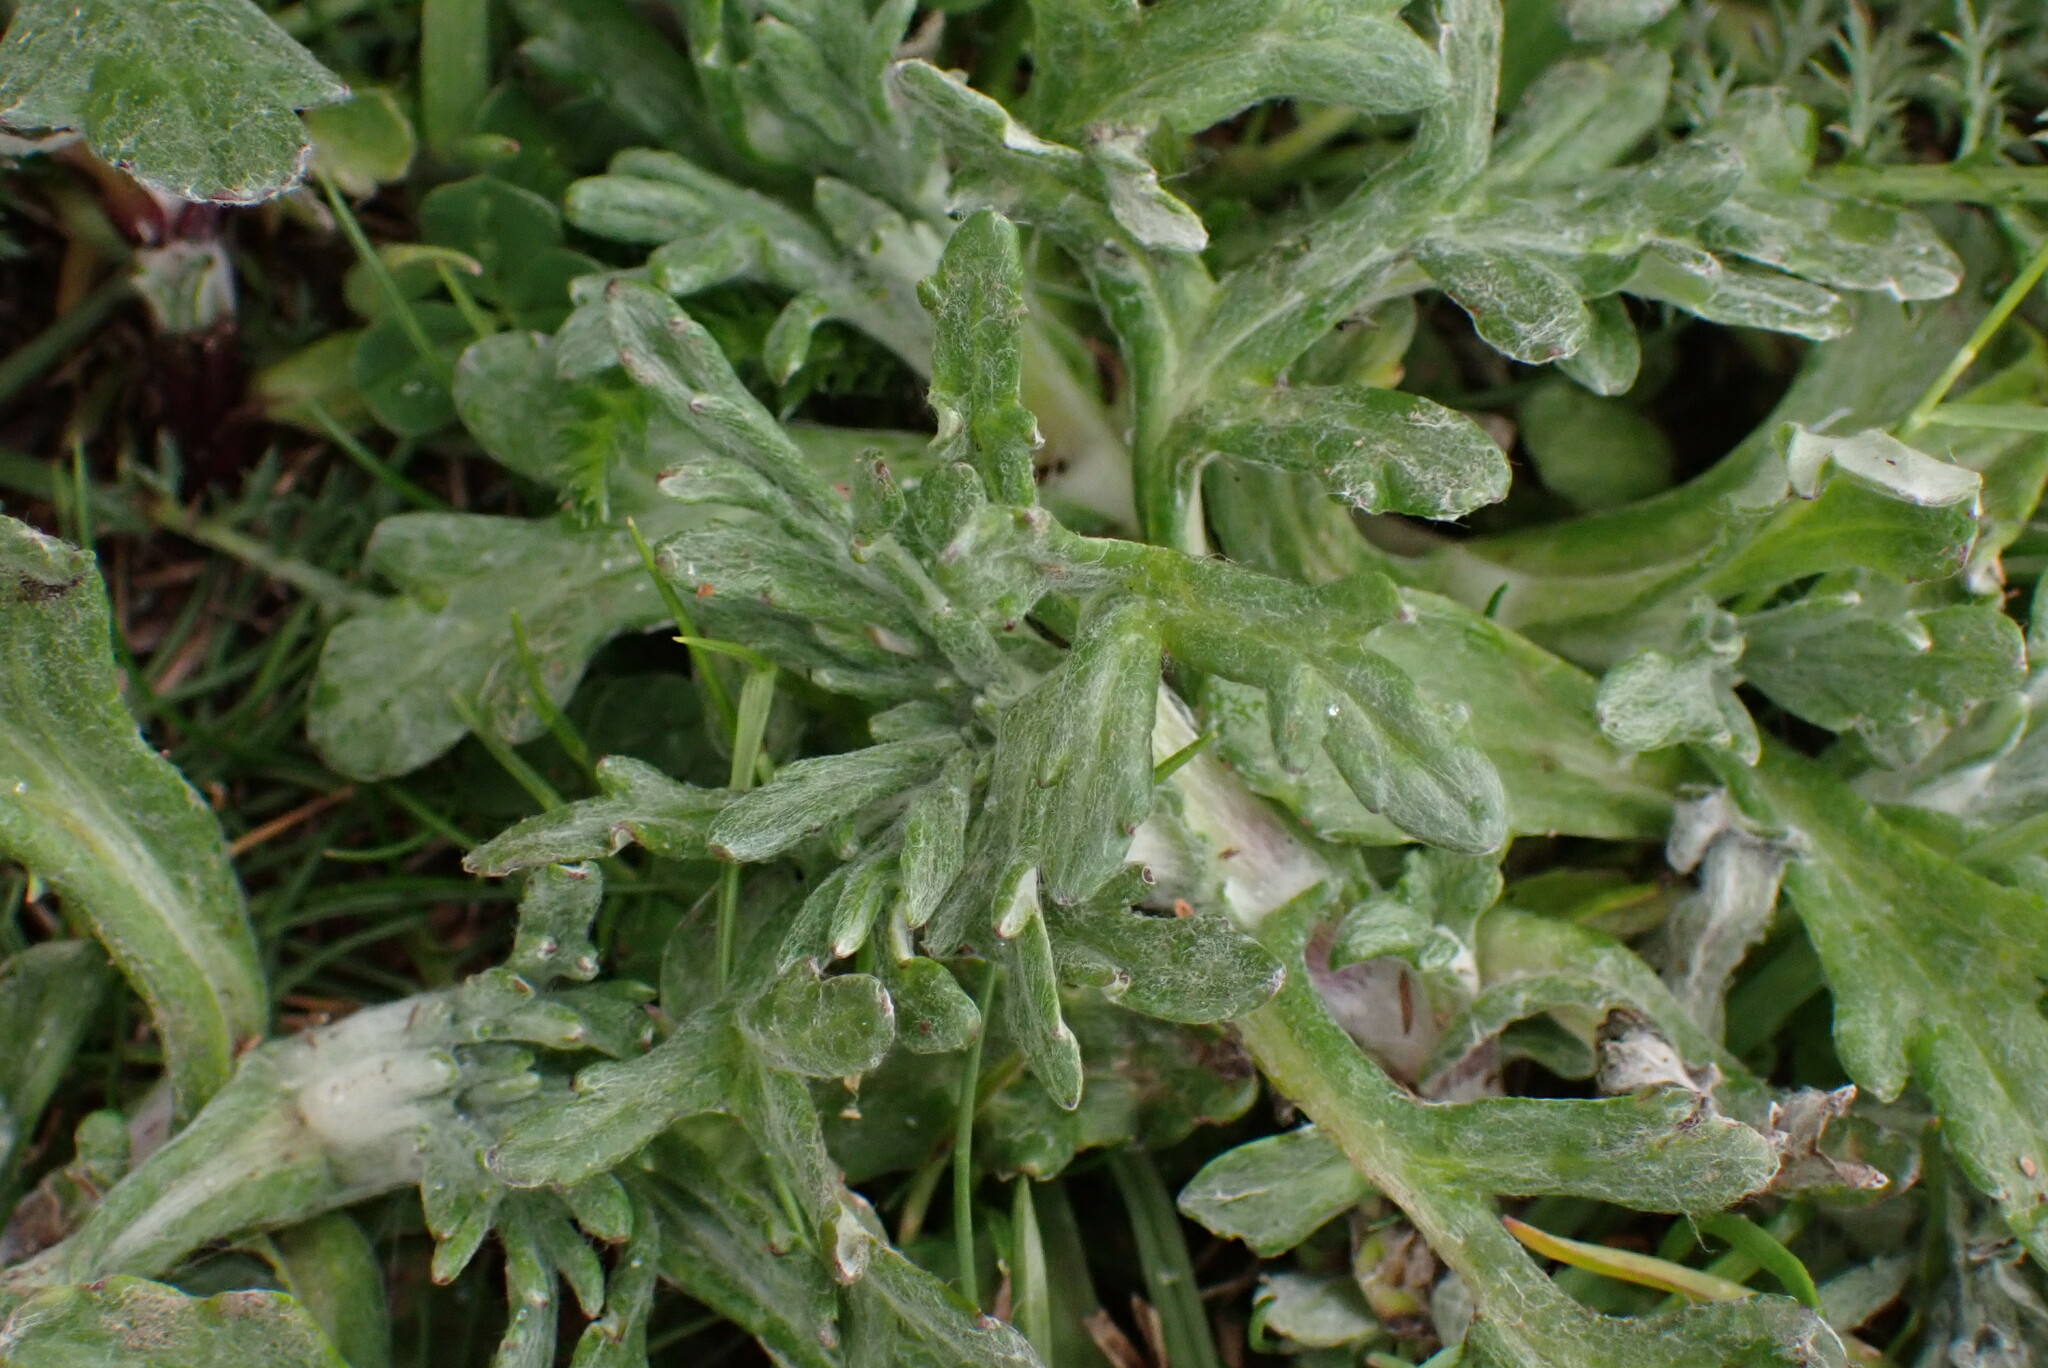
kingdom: Plantae
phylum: Tracheophyta
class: Magnoliopsida
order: Asterales
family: Asteraceae
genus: Eriophyllum
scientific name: Eriophyllum lanatum
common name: Common woolly-sunflower
